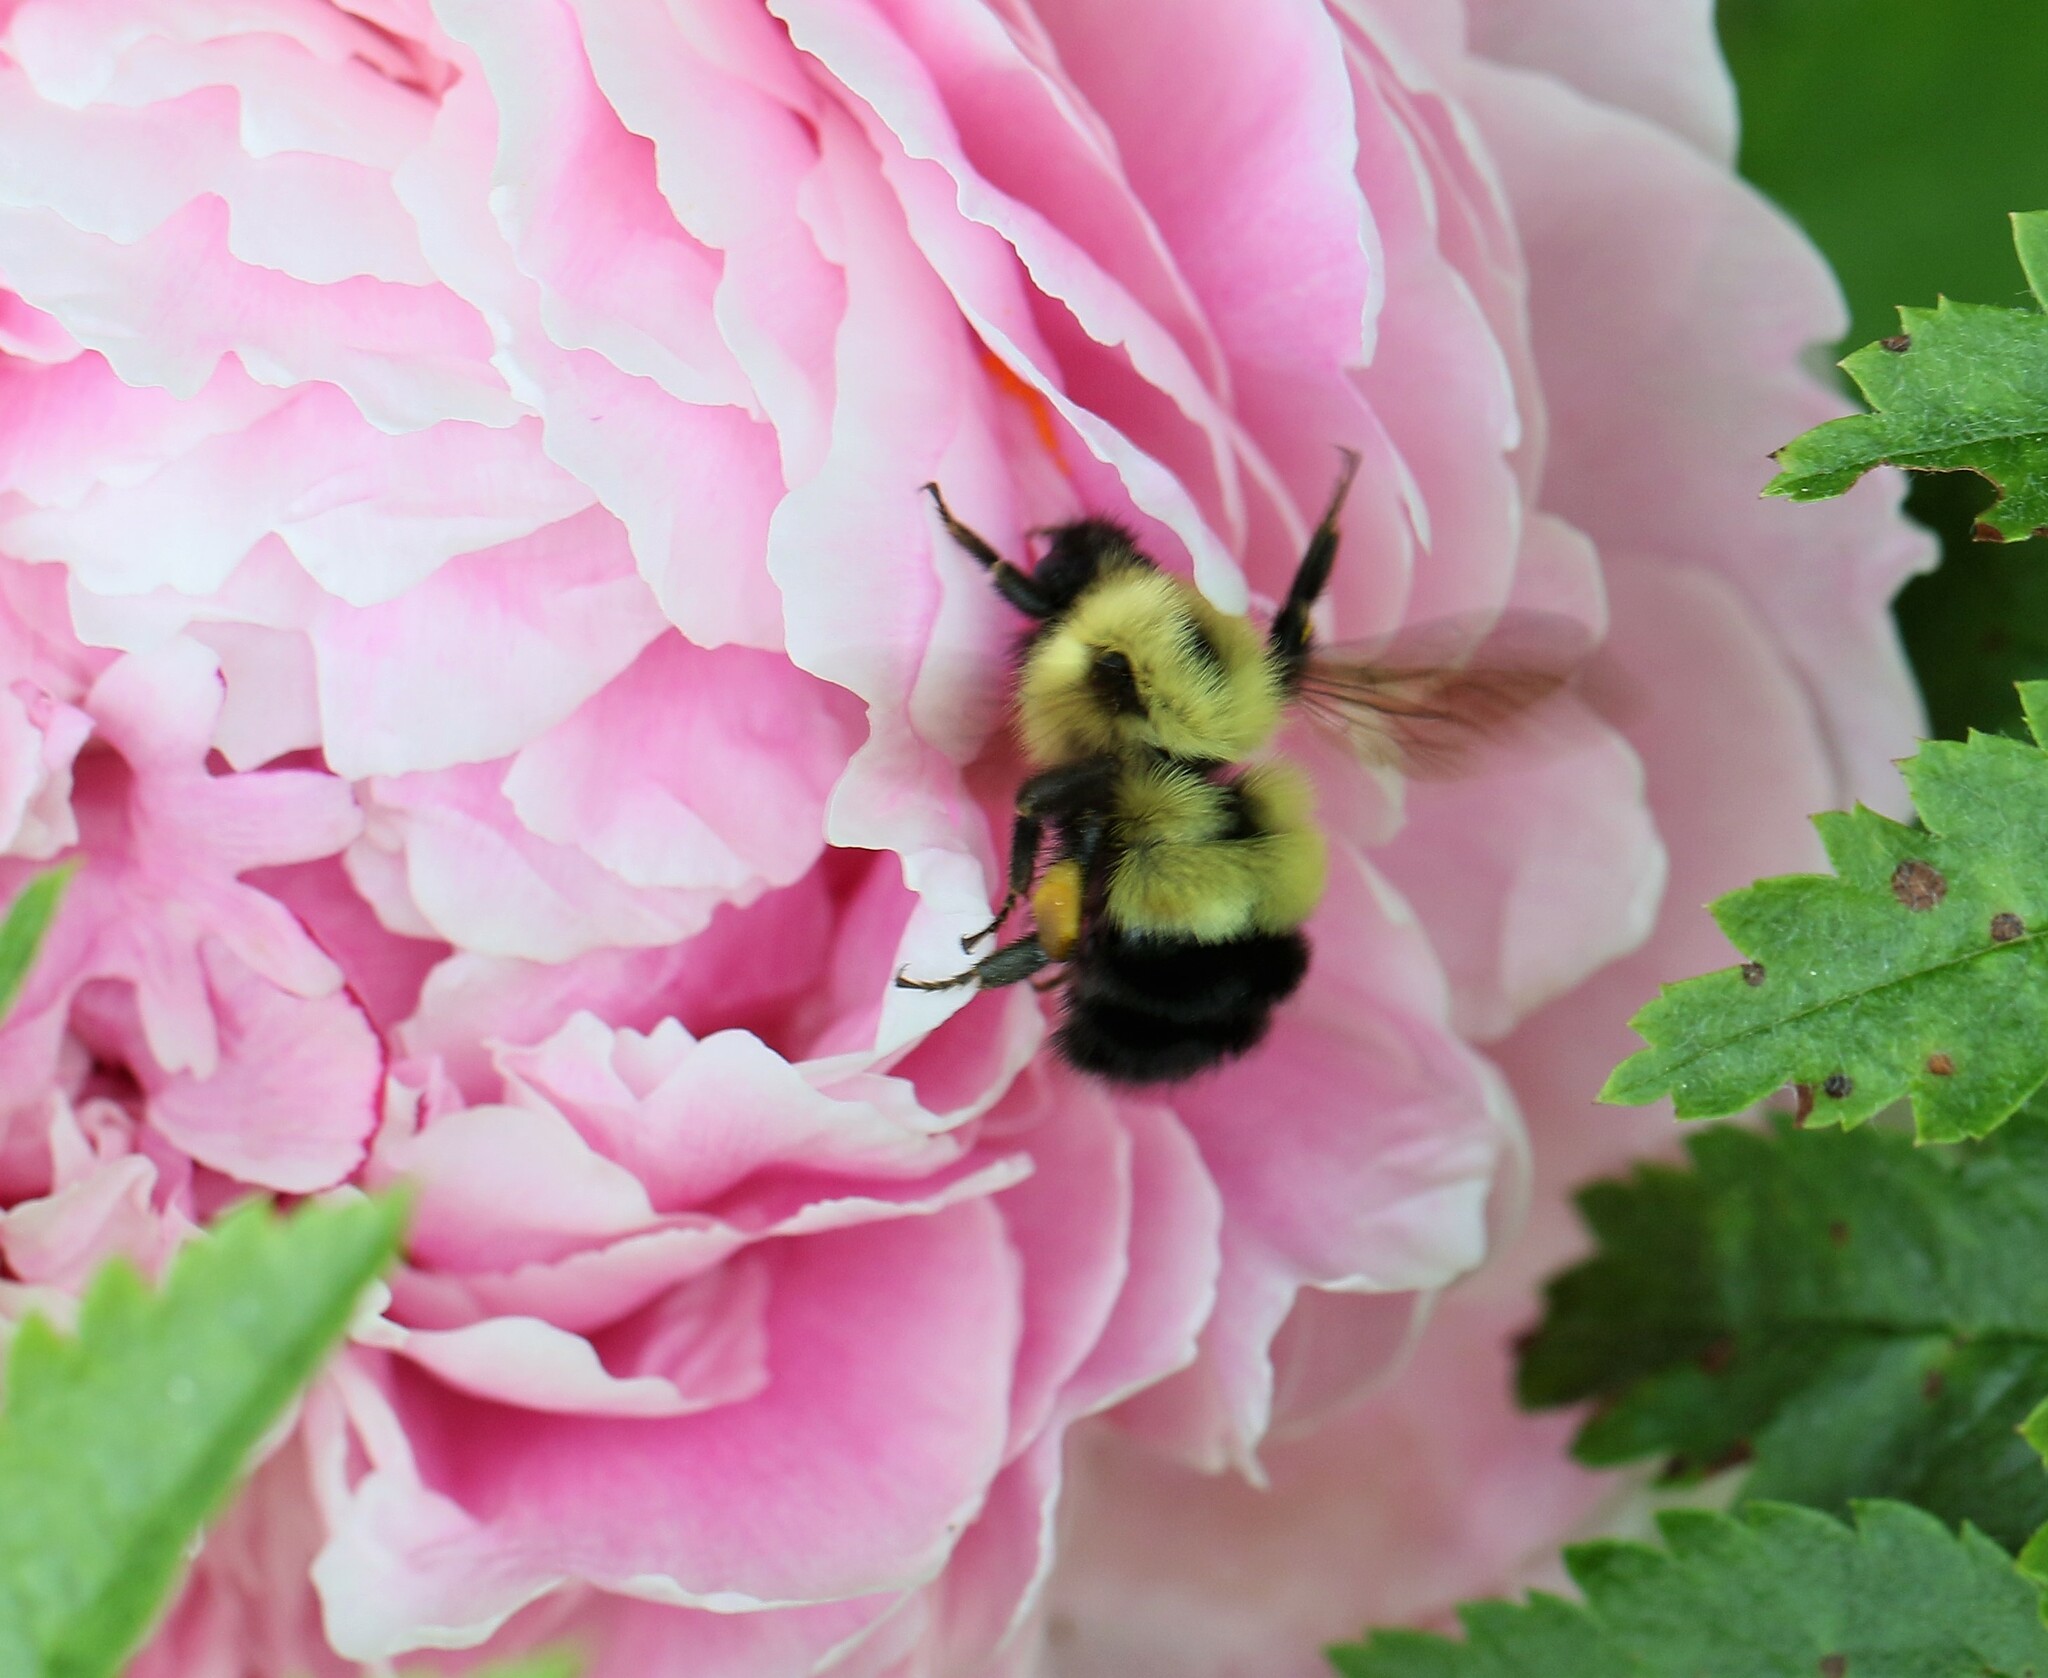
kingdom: Animalia
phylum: Arthropoda
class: Insecta
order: Hymenoptera
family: Apidae
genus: Bombus
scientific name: Bombus vagans
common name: Half-black bumble bee
